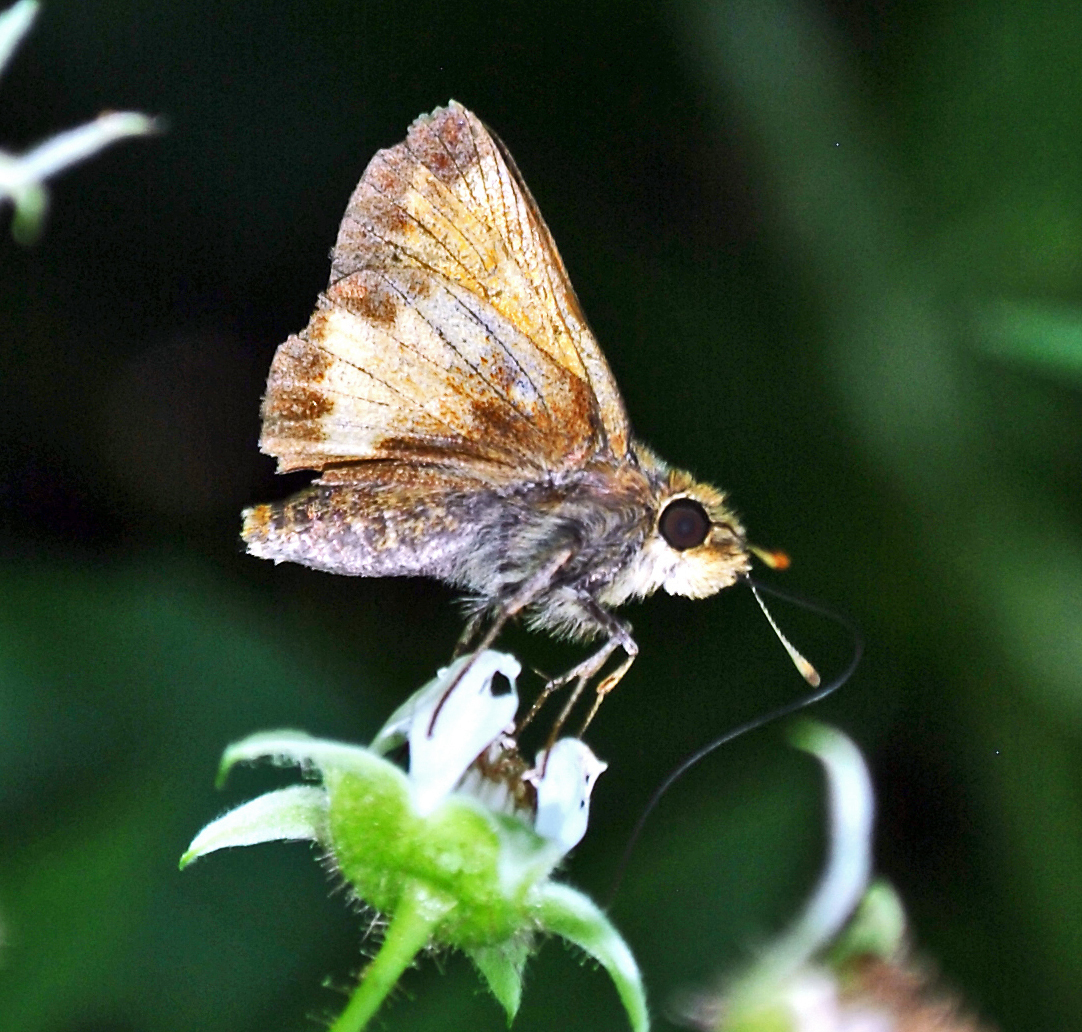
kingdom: Animalia
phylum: Arthropoda
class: Insecta
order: Lepidoptera
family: Hesperiidae
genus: Lon
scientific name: Lon hobomok
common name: Hobomok skipper
